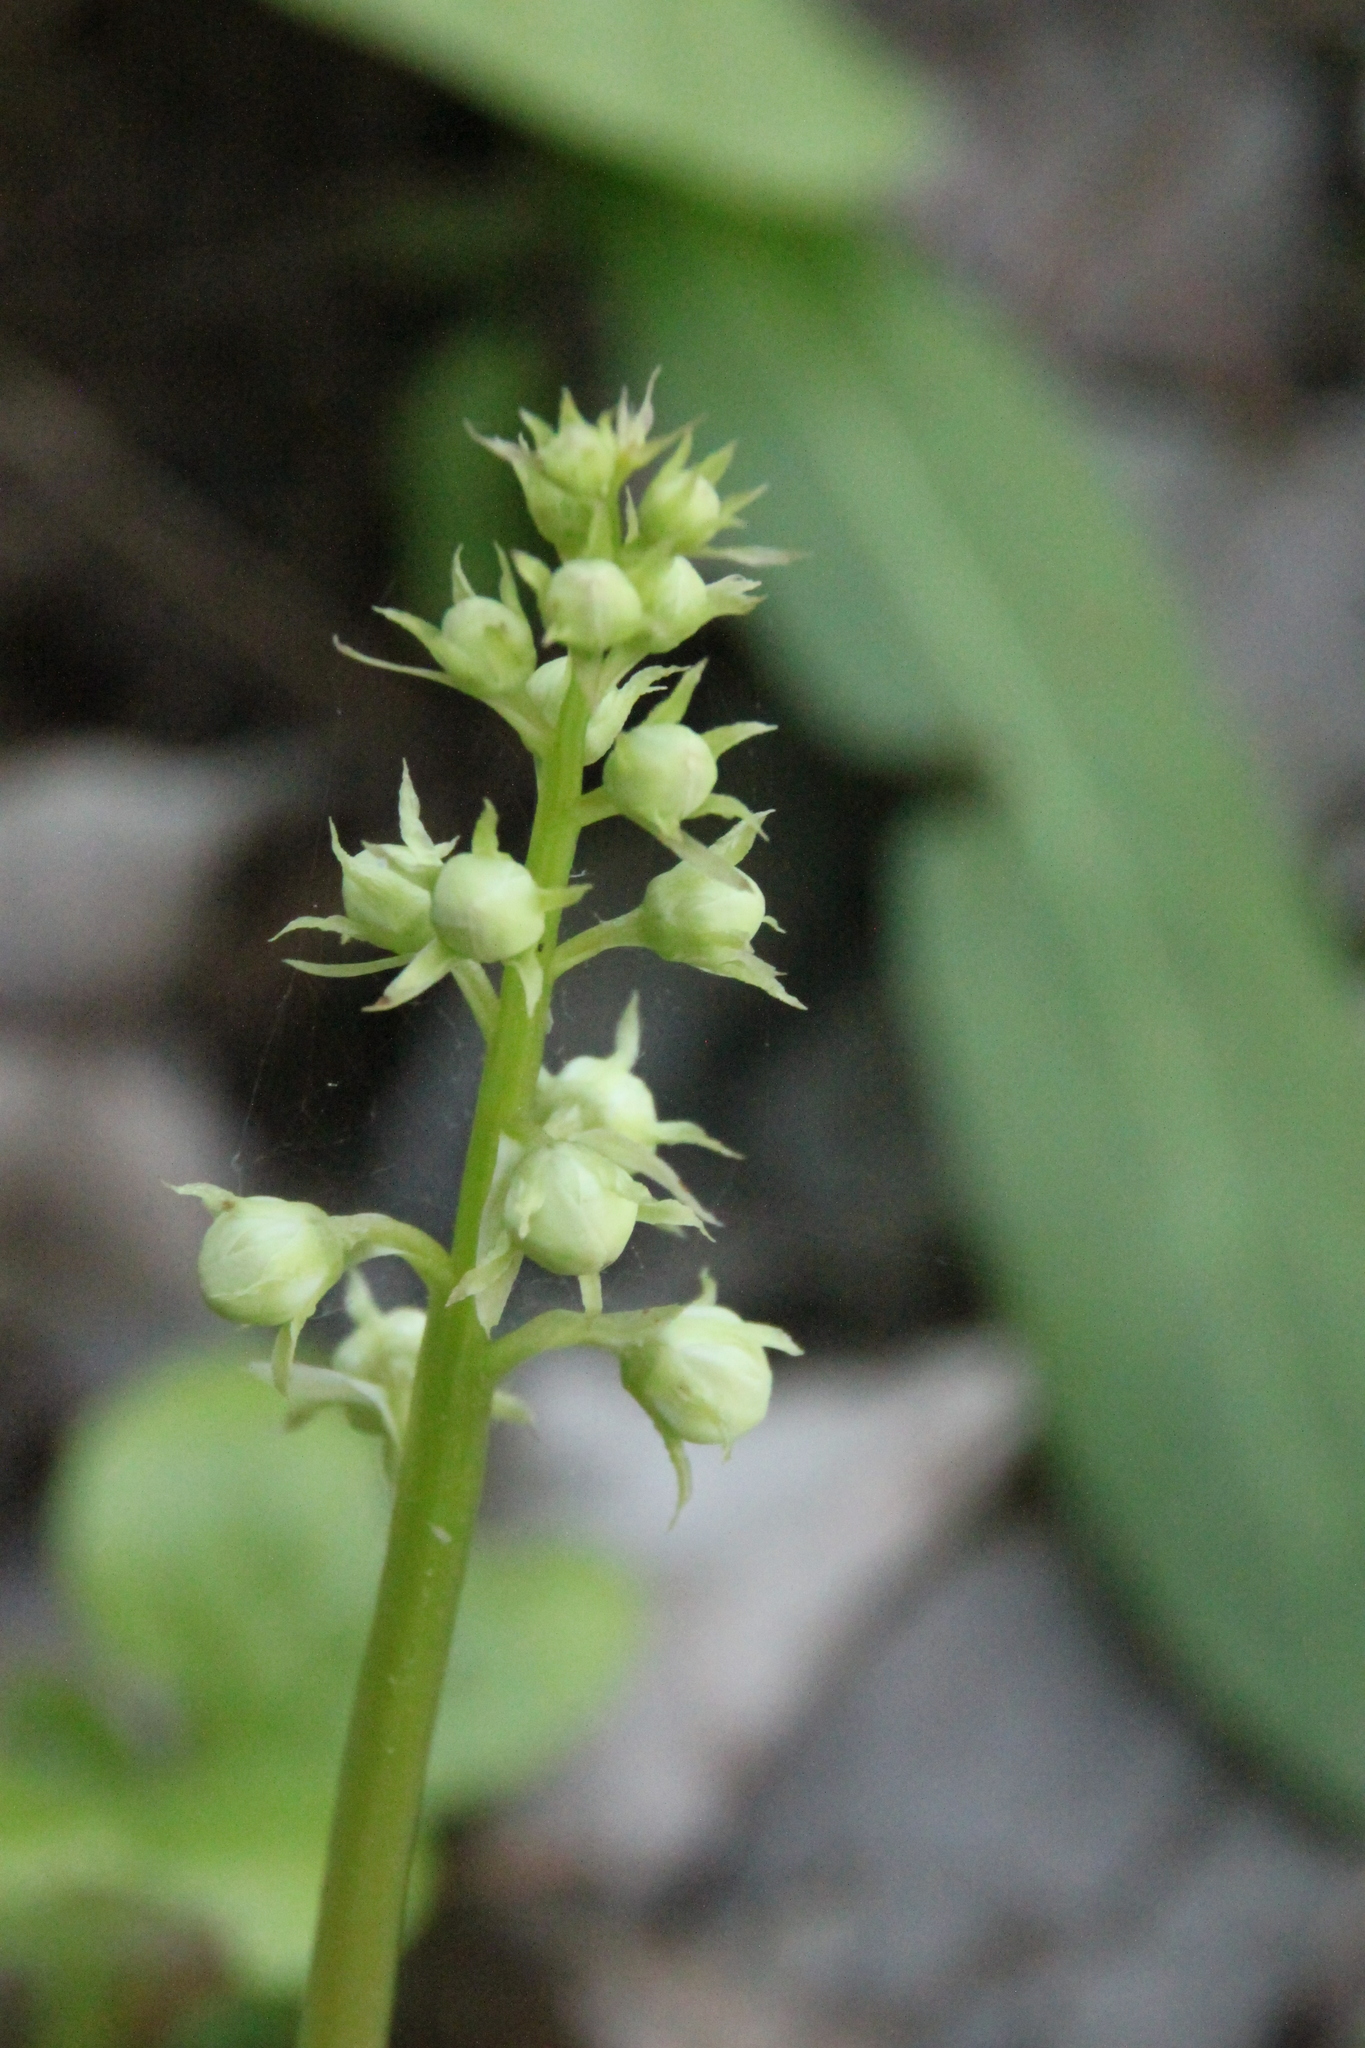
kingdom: Plantae
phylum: Tracheophyta
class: Magnoliopsida
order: Ericales
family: Ericaceae
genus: Pyrola
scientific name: Pyrola rotundifolia
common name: Round-leaved wintergreen
